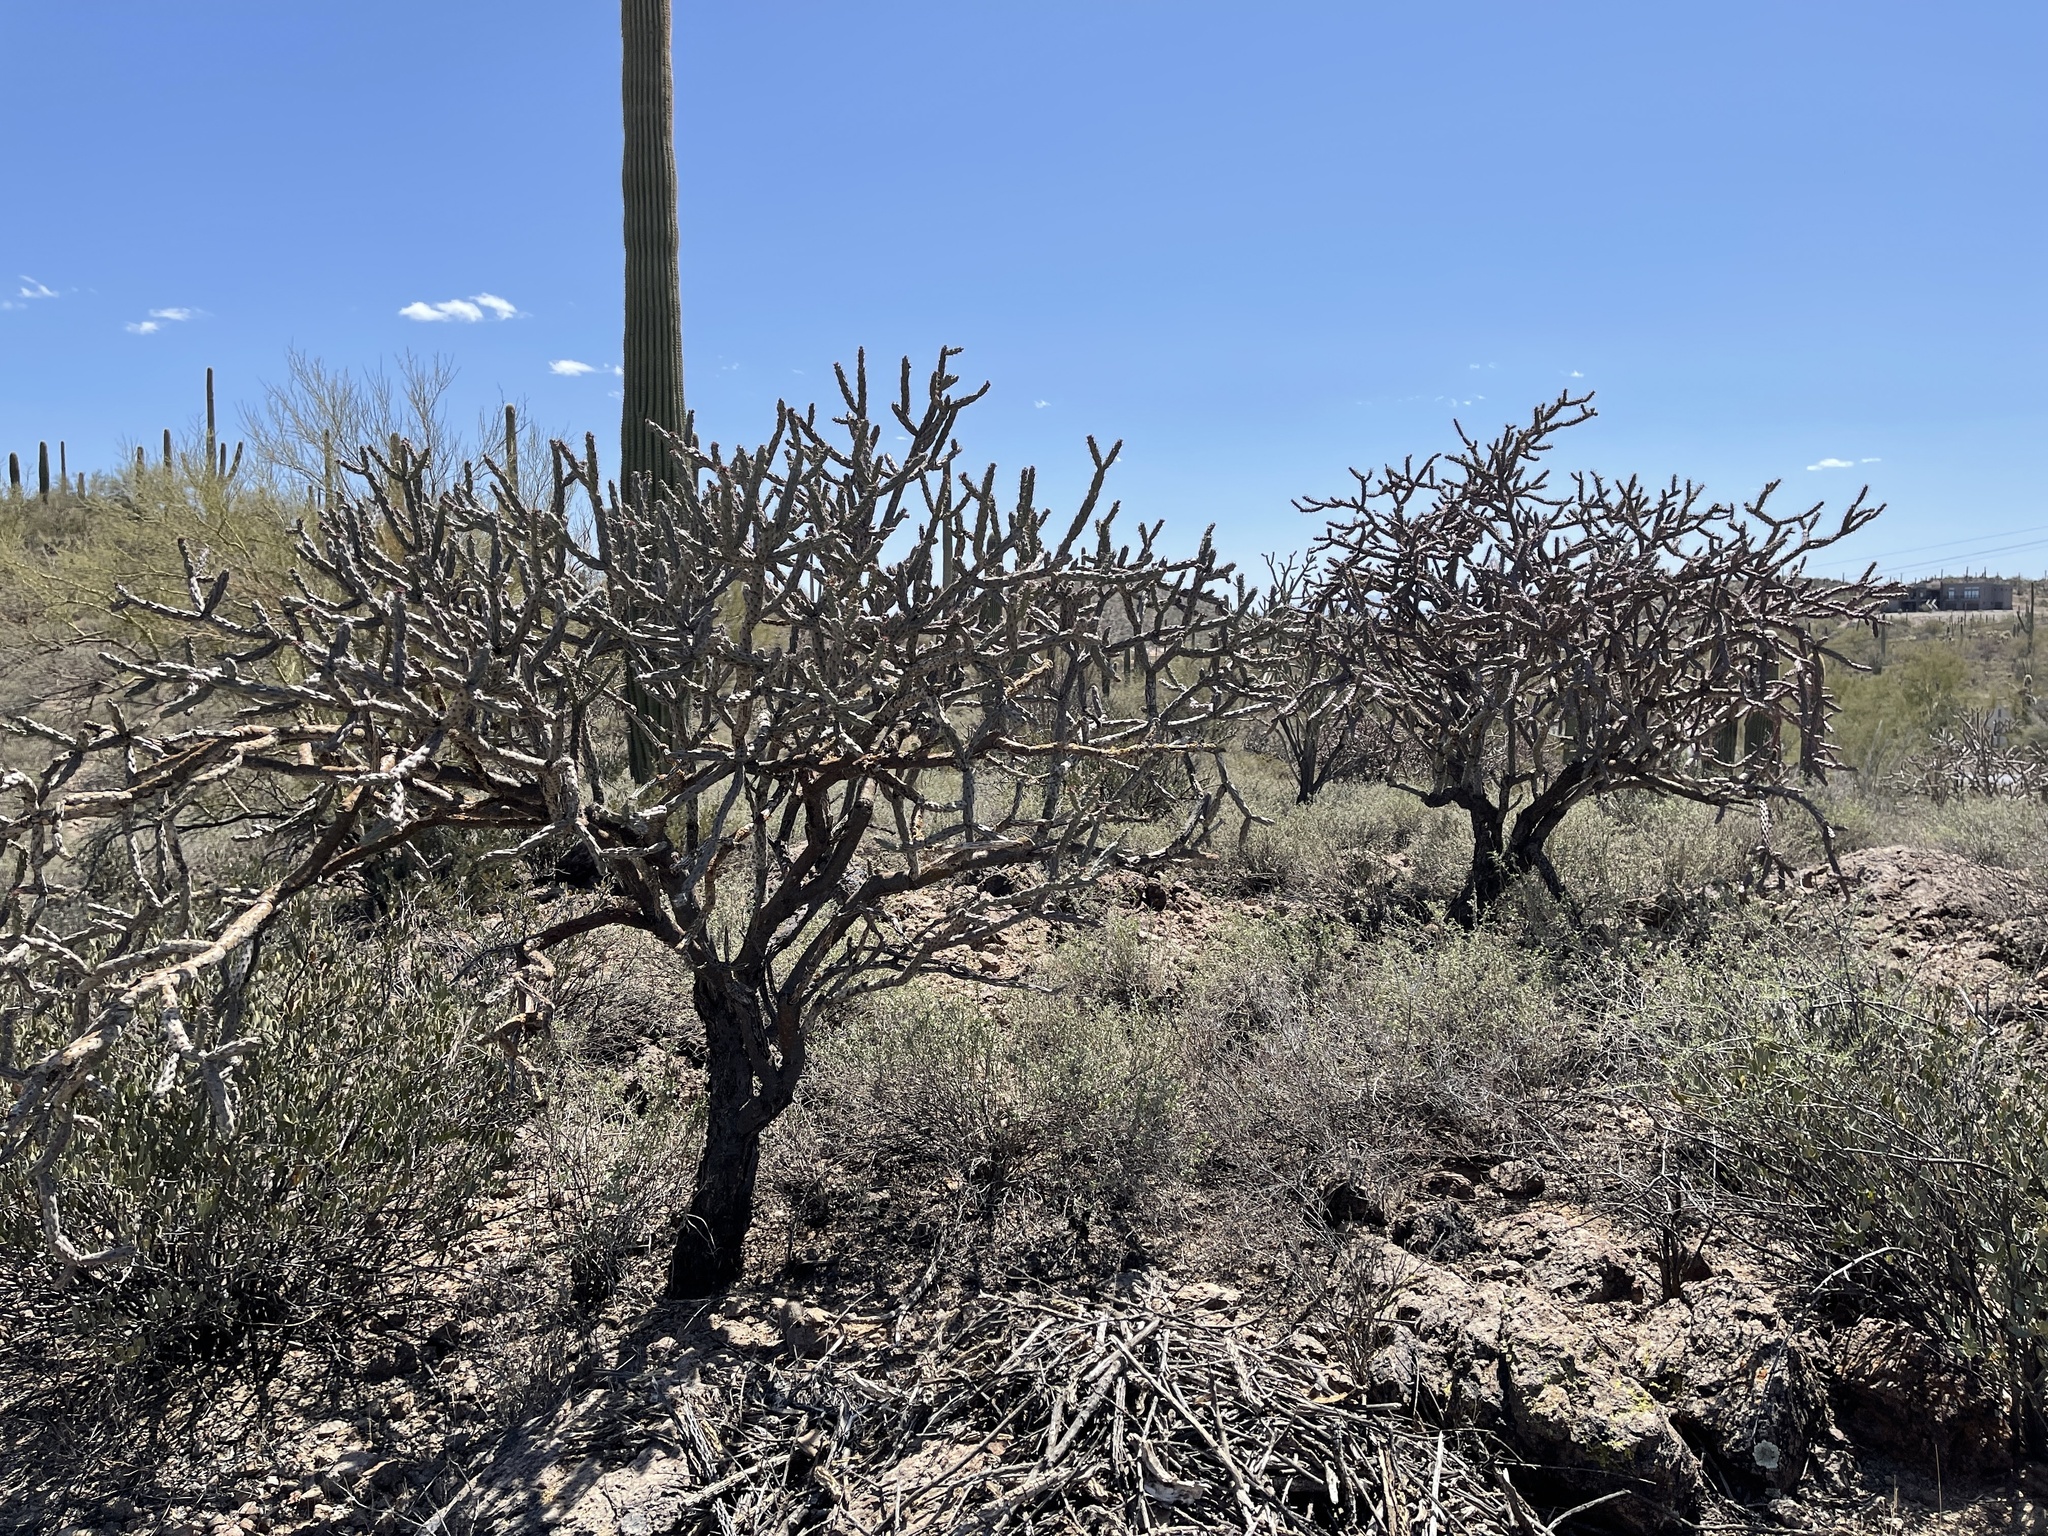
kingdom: Plantae
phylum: Tracheophyta
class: Magnoliopsida
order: Caryophyllales
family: Cactaceae
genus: Cylindropuntia
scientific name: Cylindropuntia acanthocarpa
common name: Buckhorn cholla
